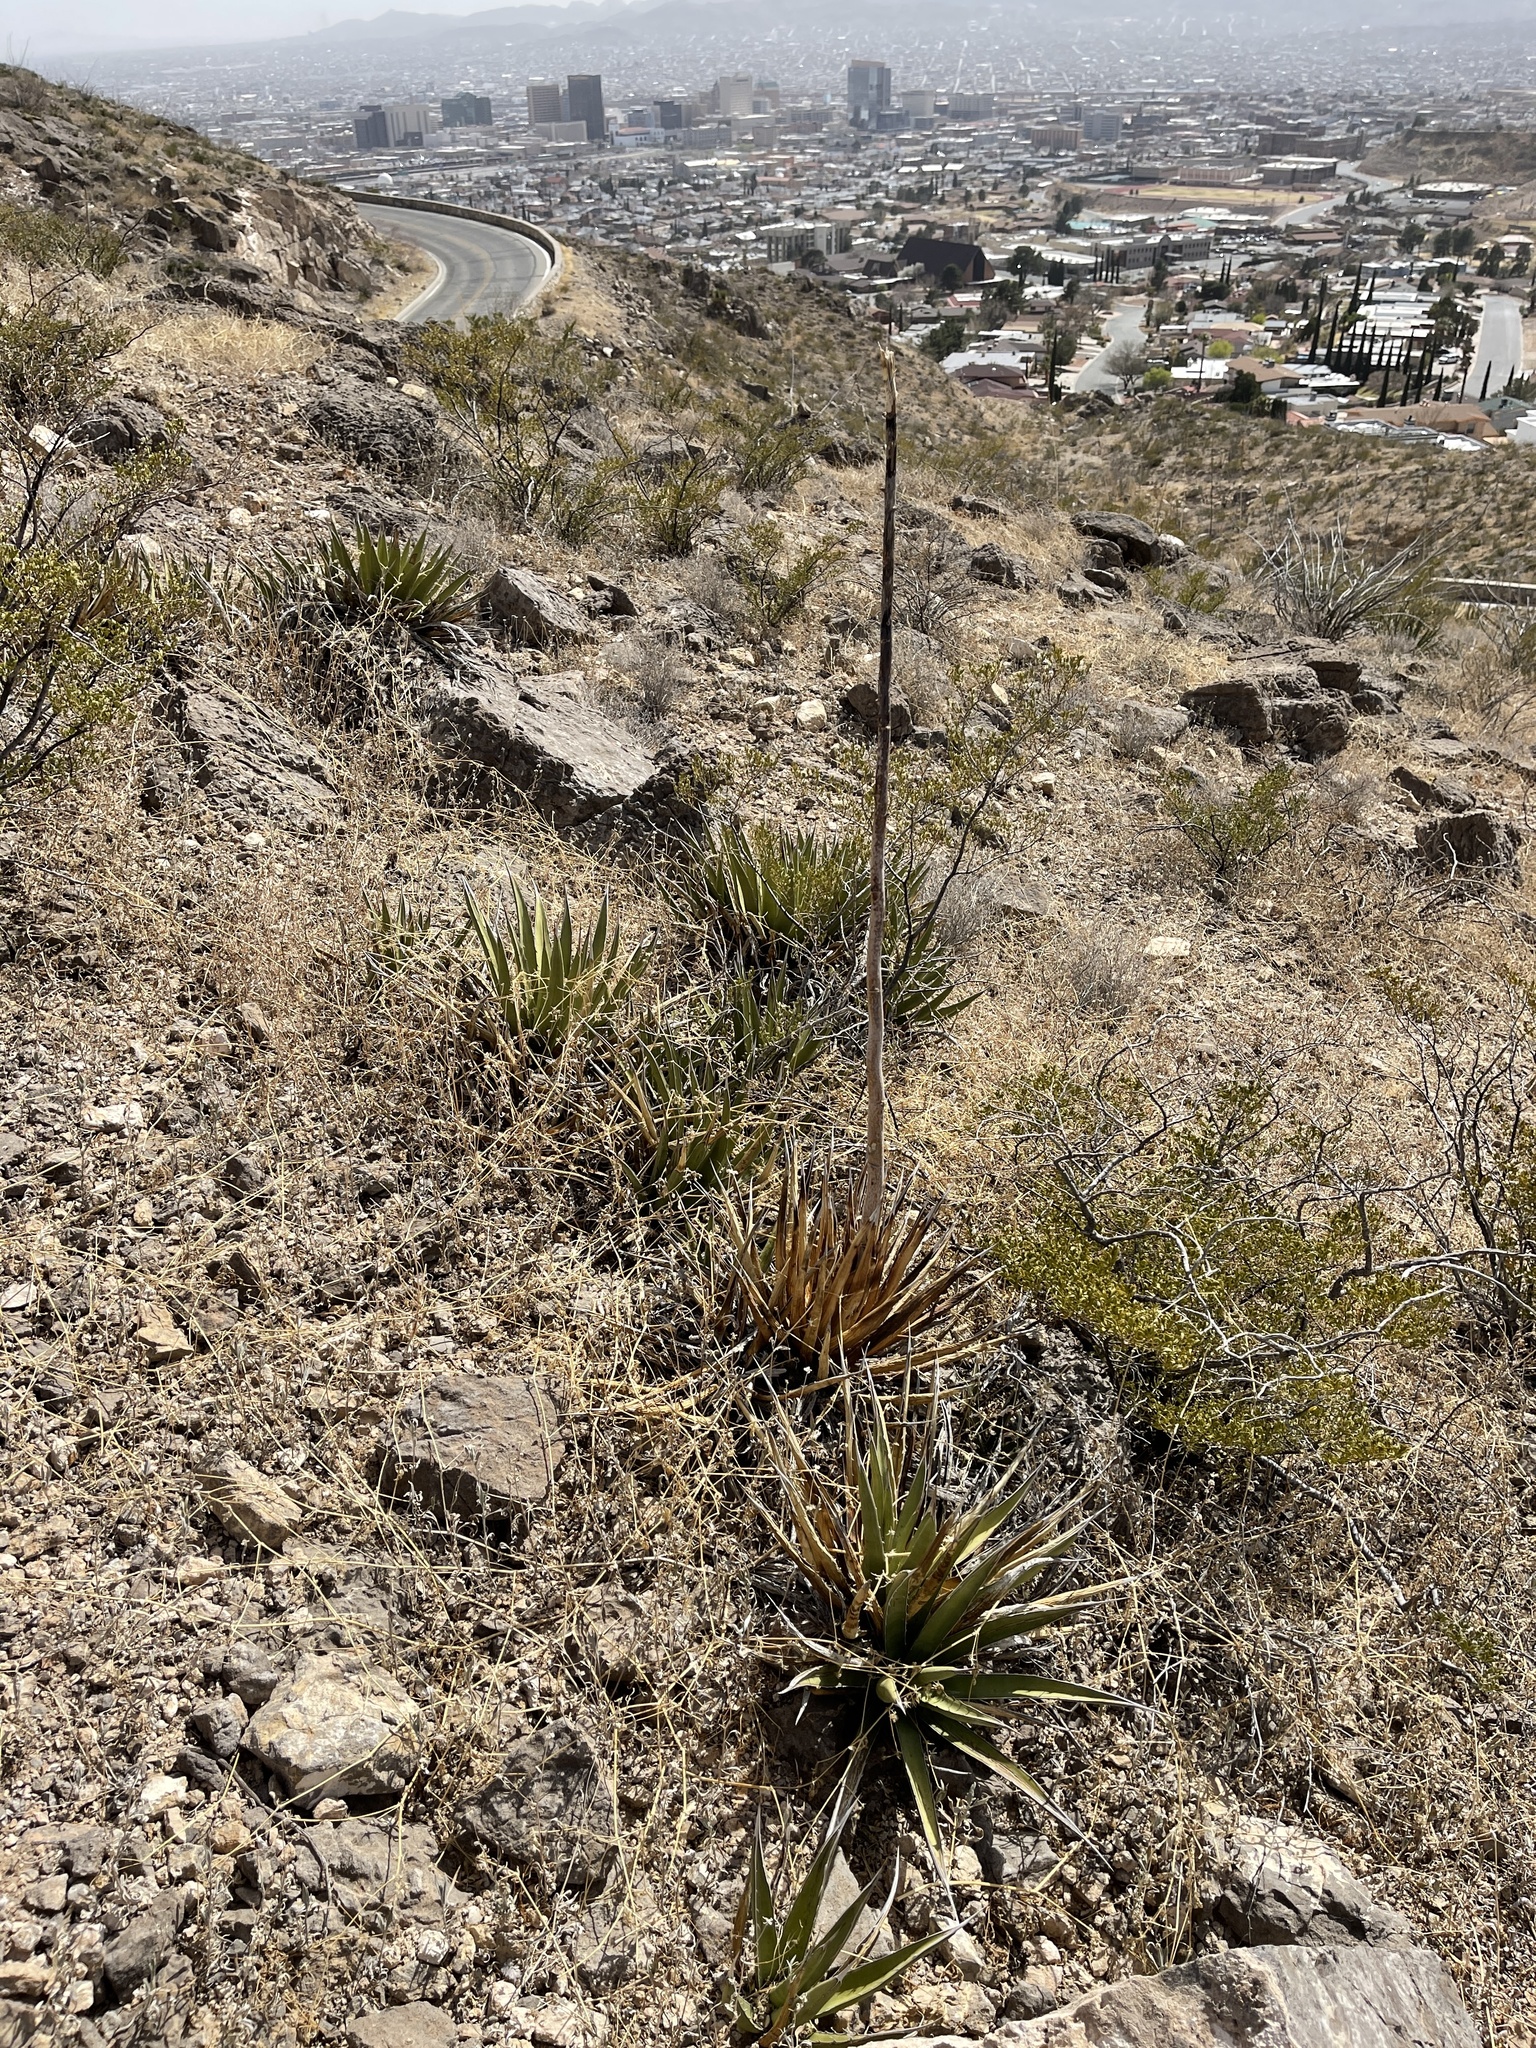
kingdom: Plantae
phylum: Tracheophyta
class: Liliopsida
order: Asparagales
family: Asparagaceae
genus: Agave
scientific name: Agave lechuguilla
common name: Lecheguilla agave
